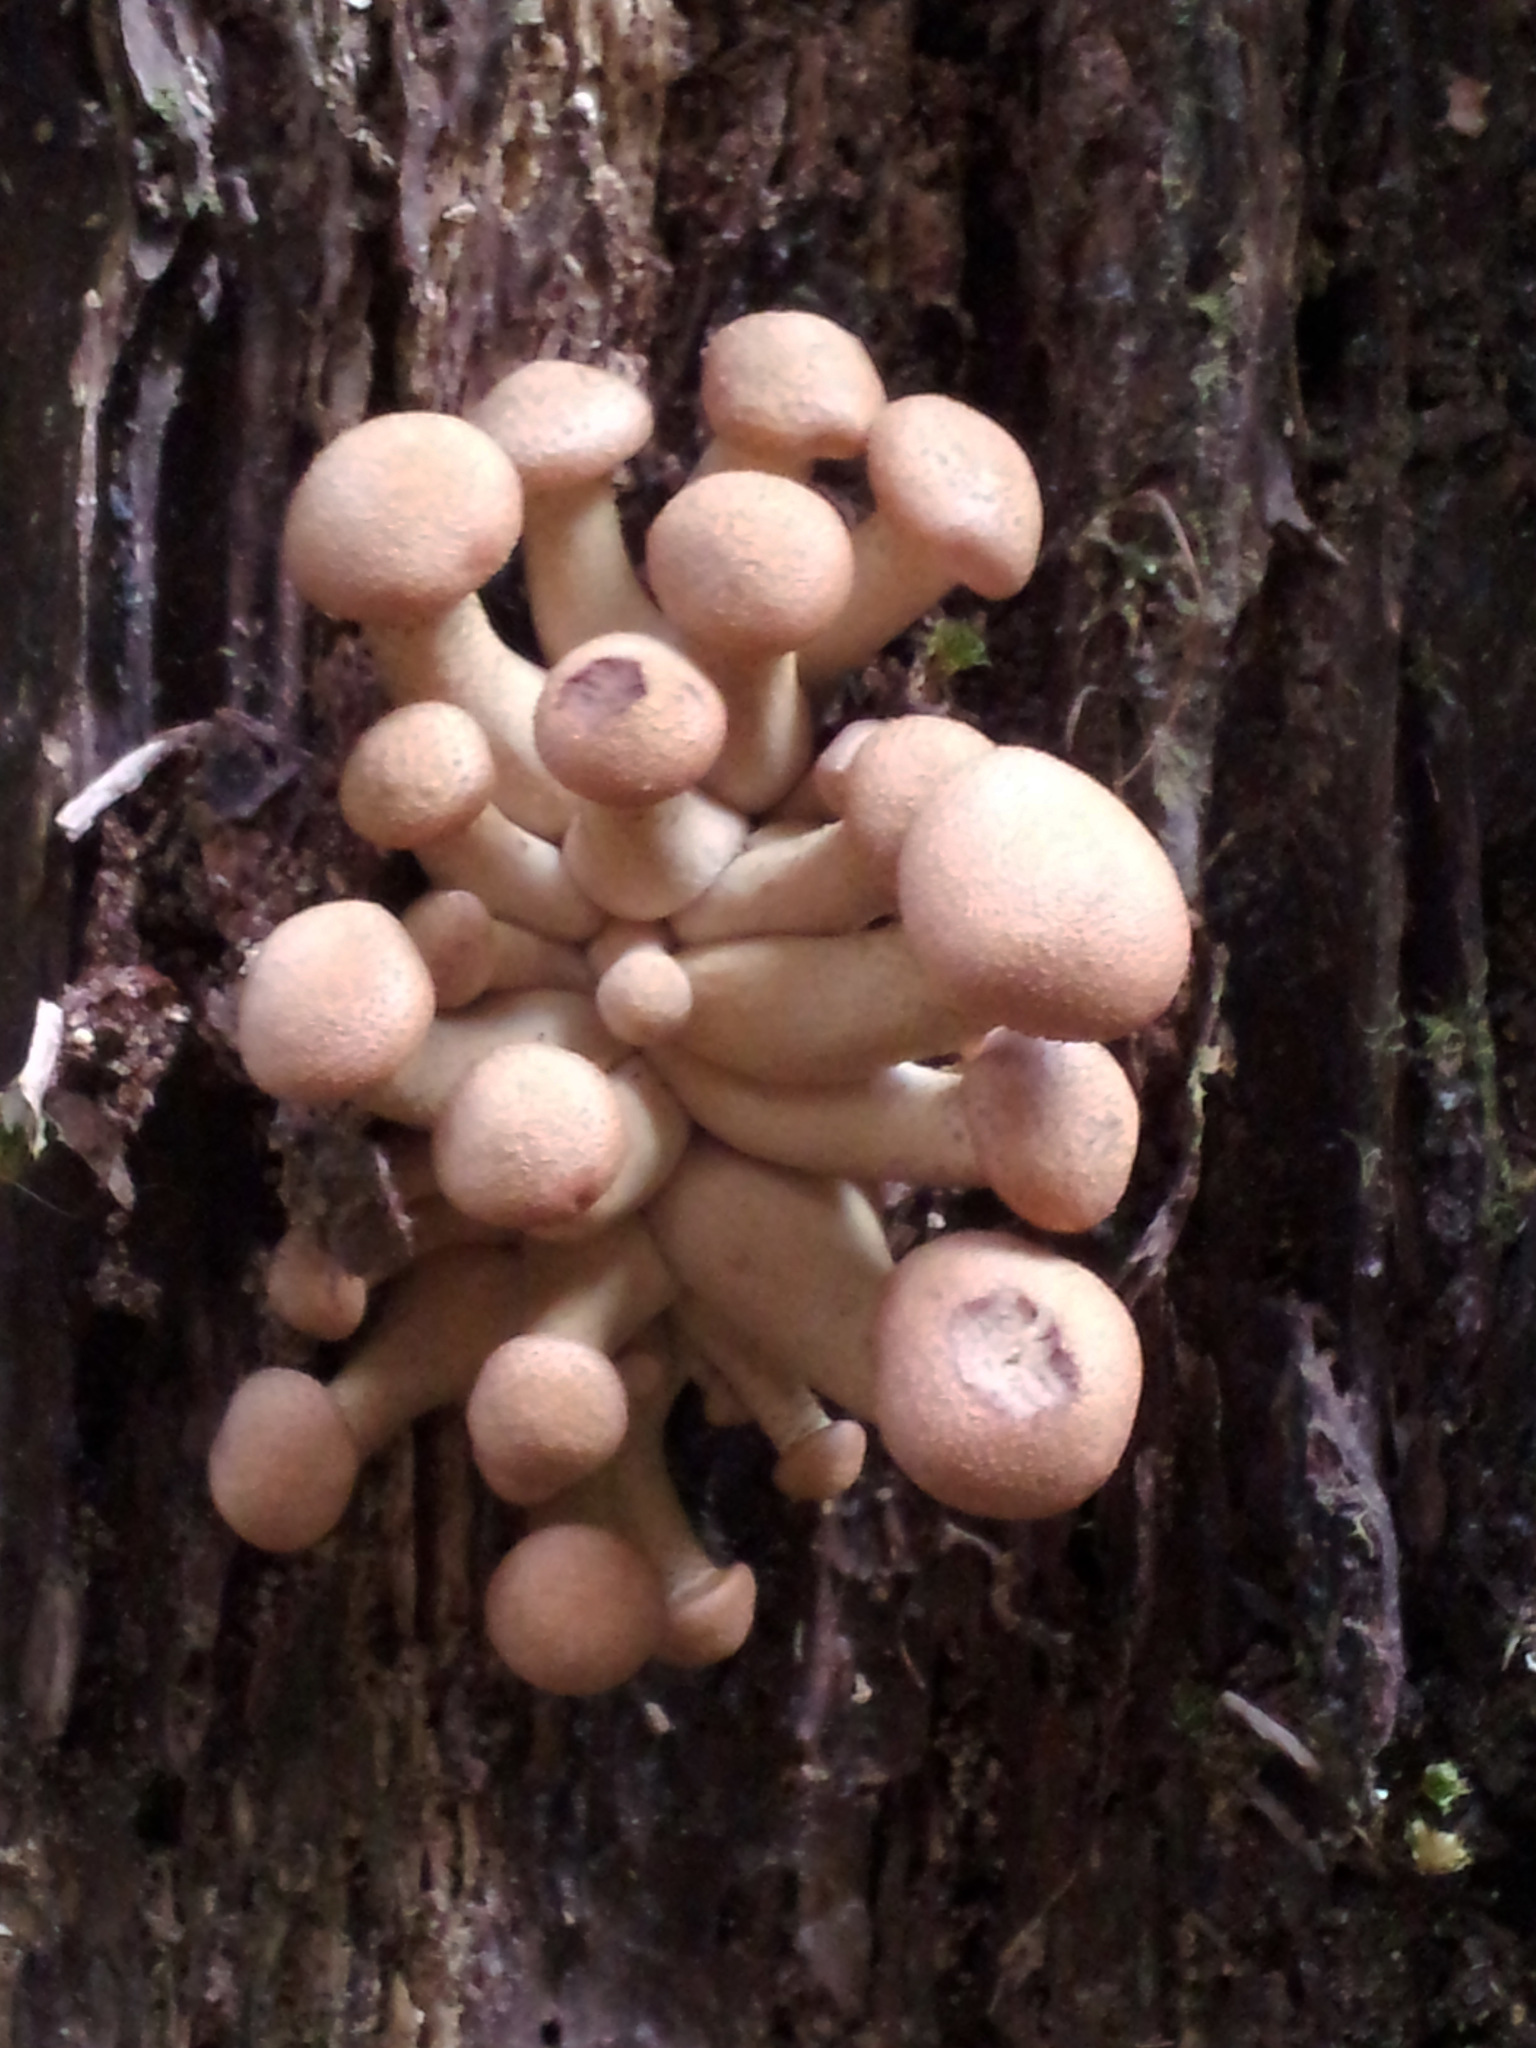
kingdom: Fungi
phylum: Basidiomycota
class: Agaricomycetes
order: Agaricales
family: Physalacriaceae
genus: Armillaria
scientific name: Armillaria limonea
